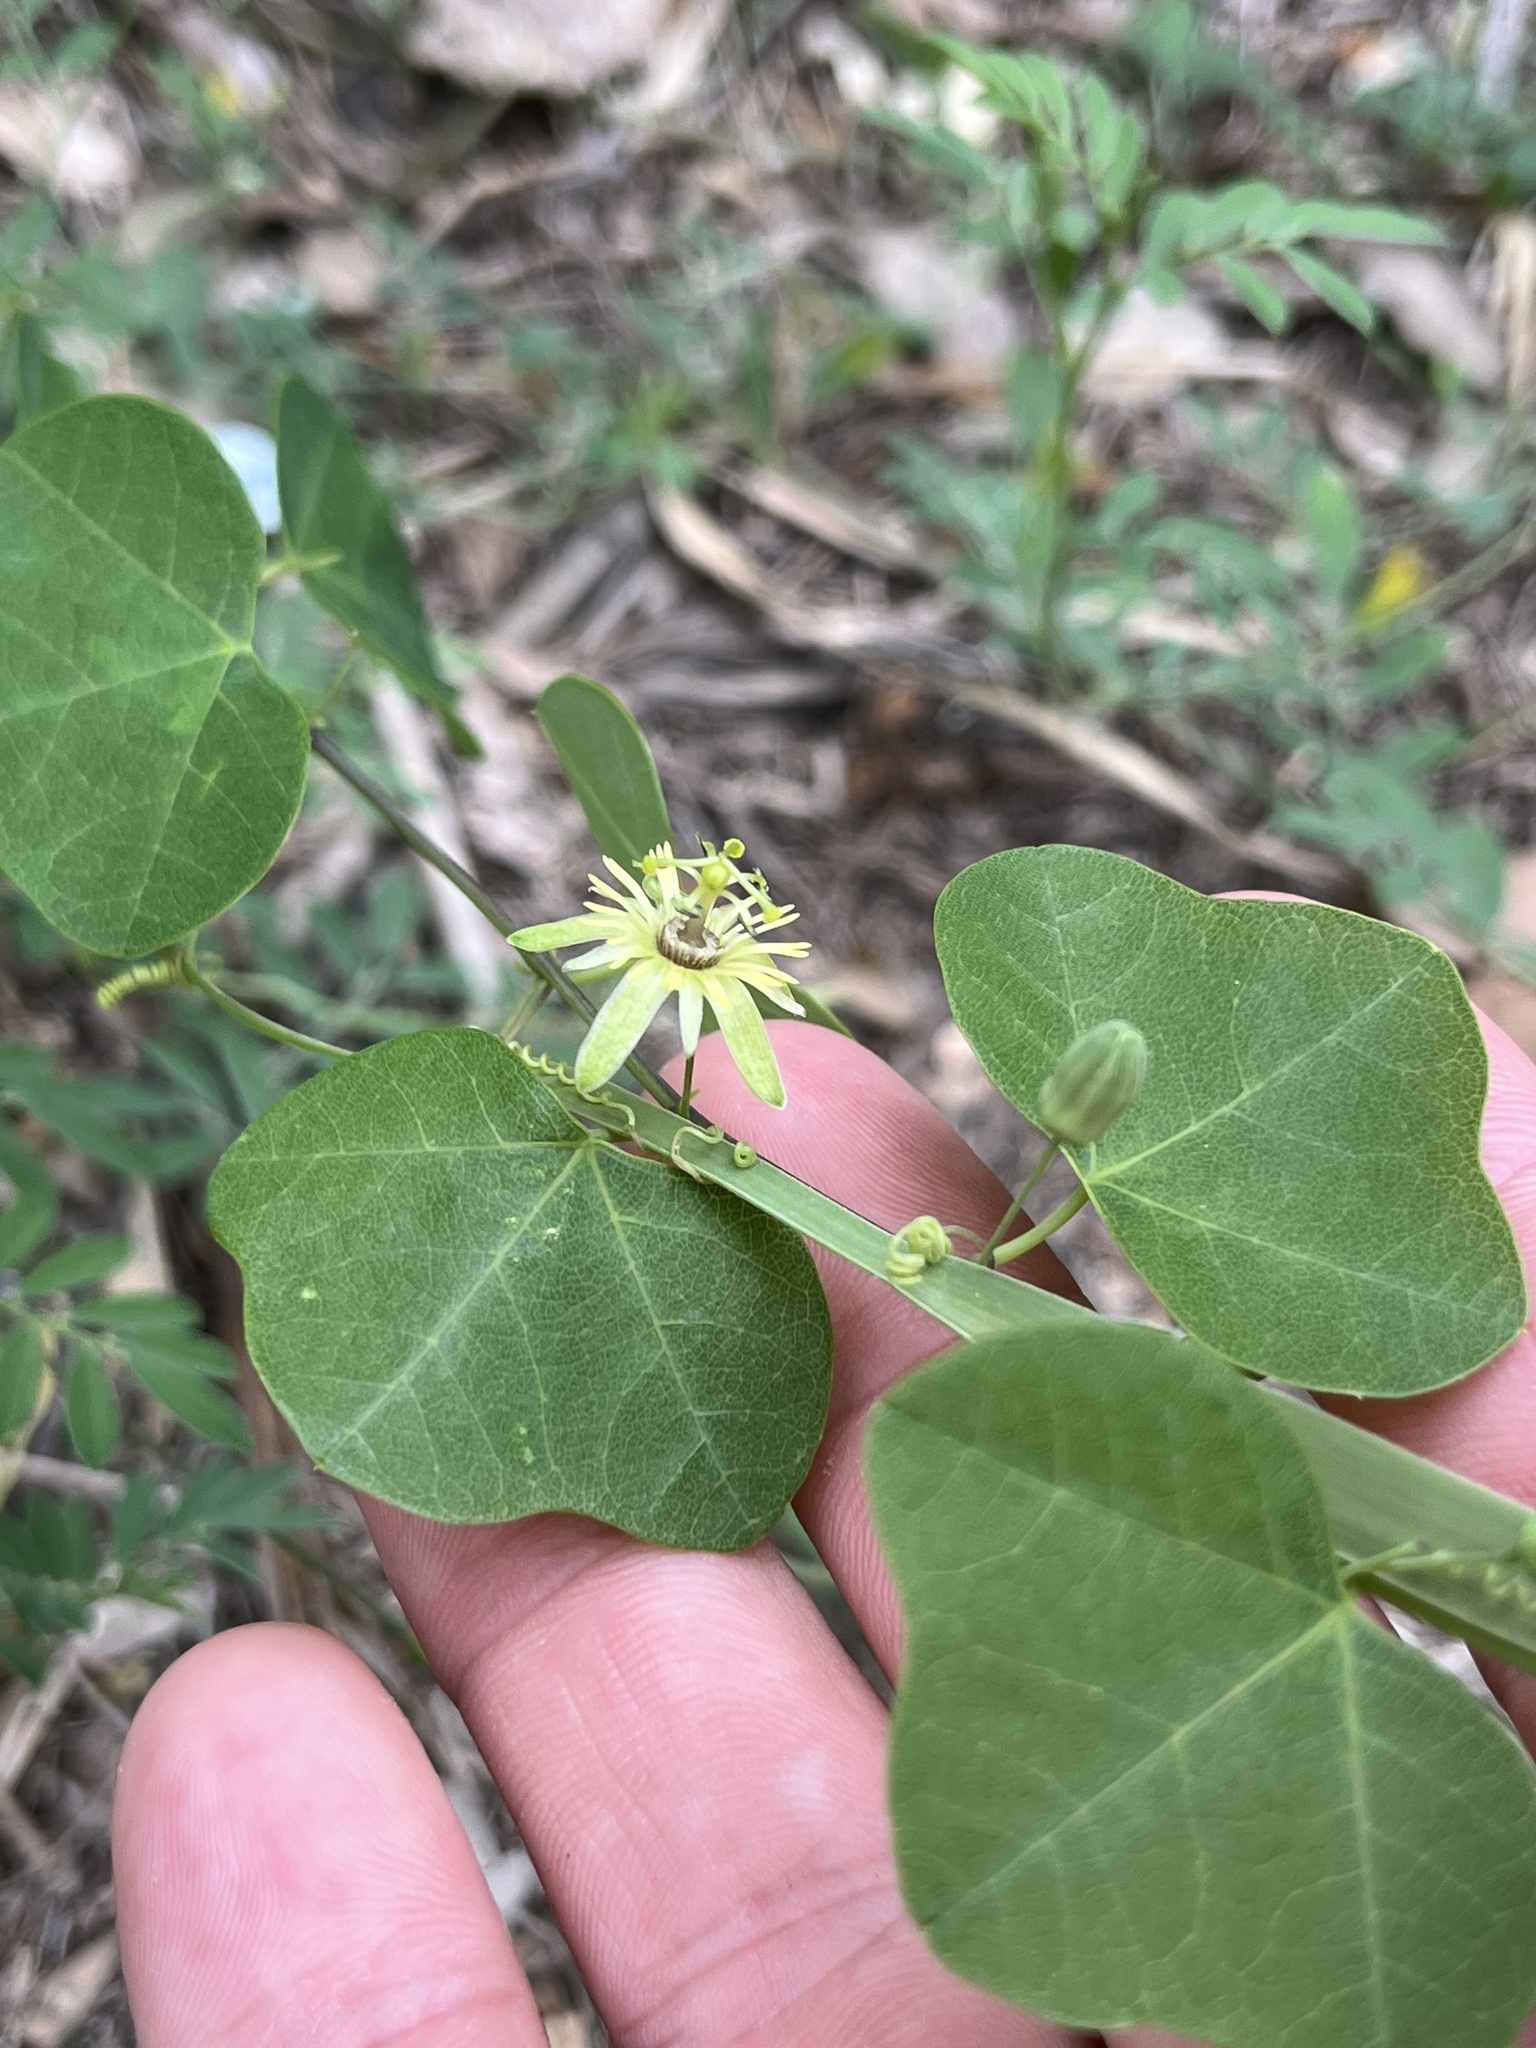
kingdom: Plantae
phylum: Tracheophyta
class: Magnoliopsida
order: Malpighiales
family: Passifloraceae
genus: Passiflora
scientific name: Passiflora lutea
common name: Yellow passionflower
